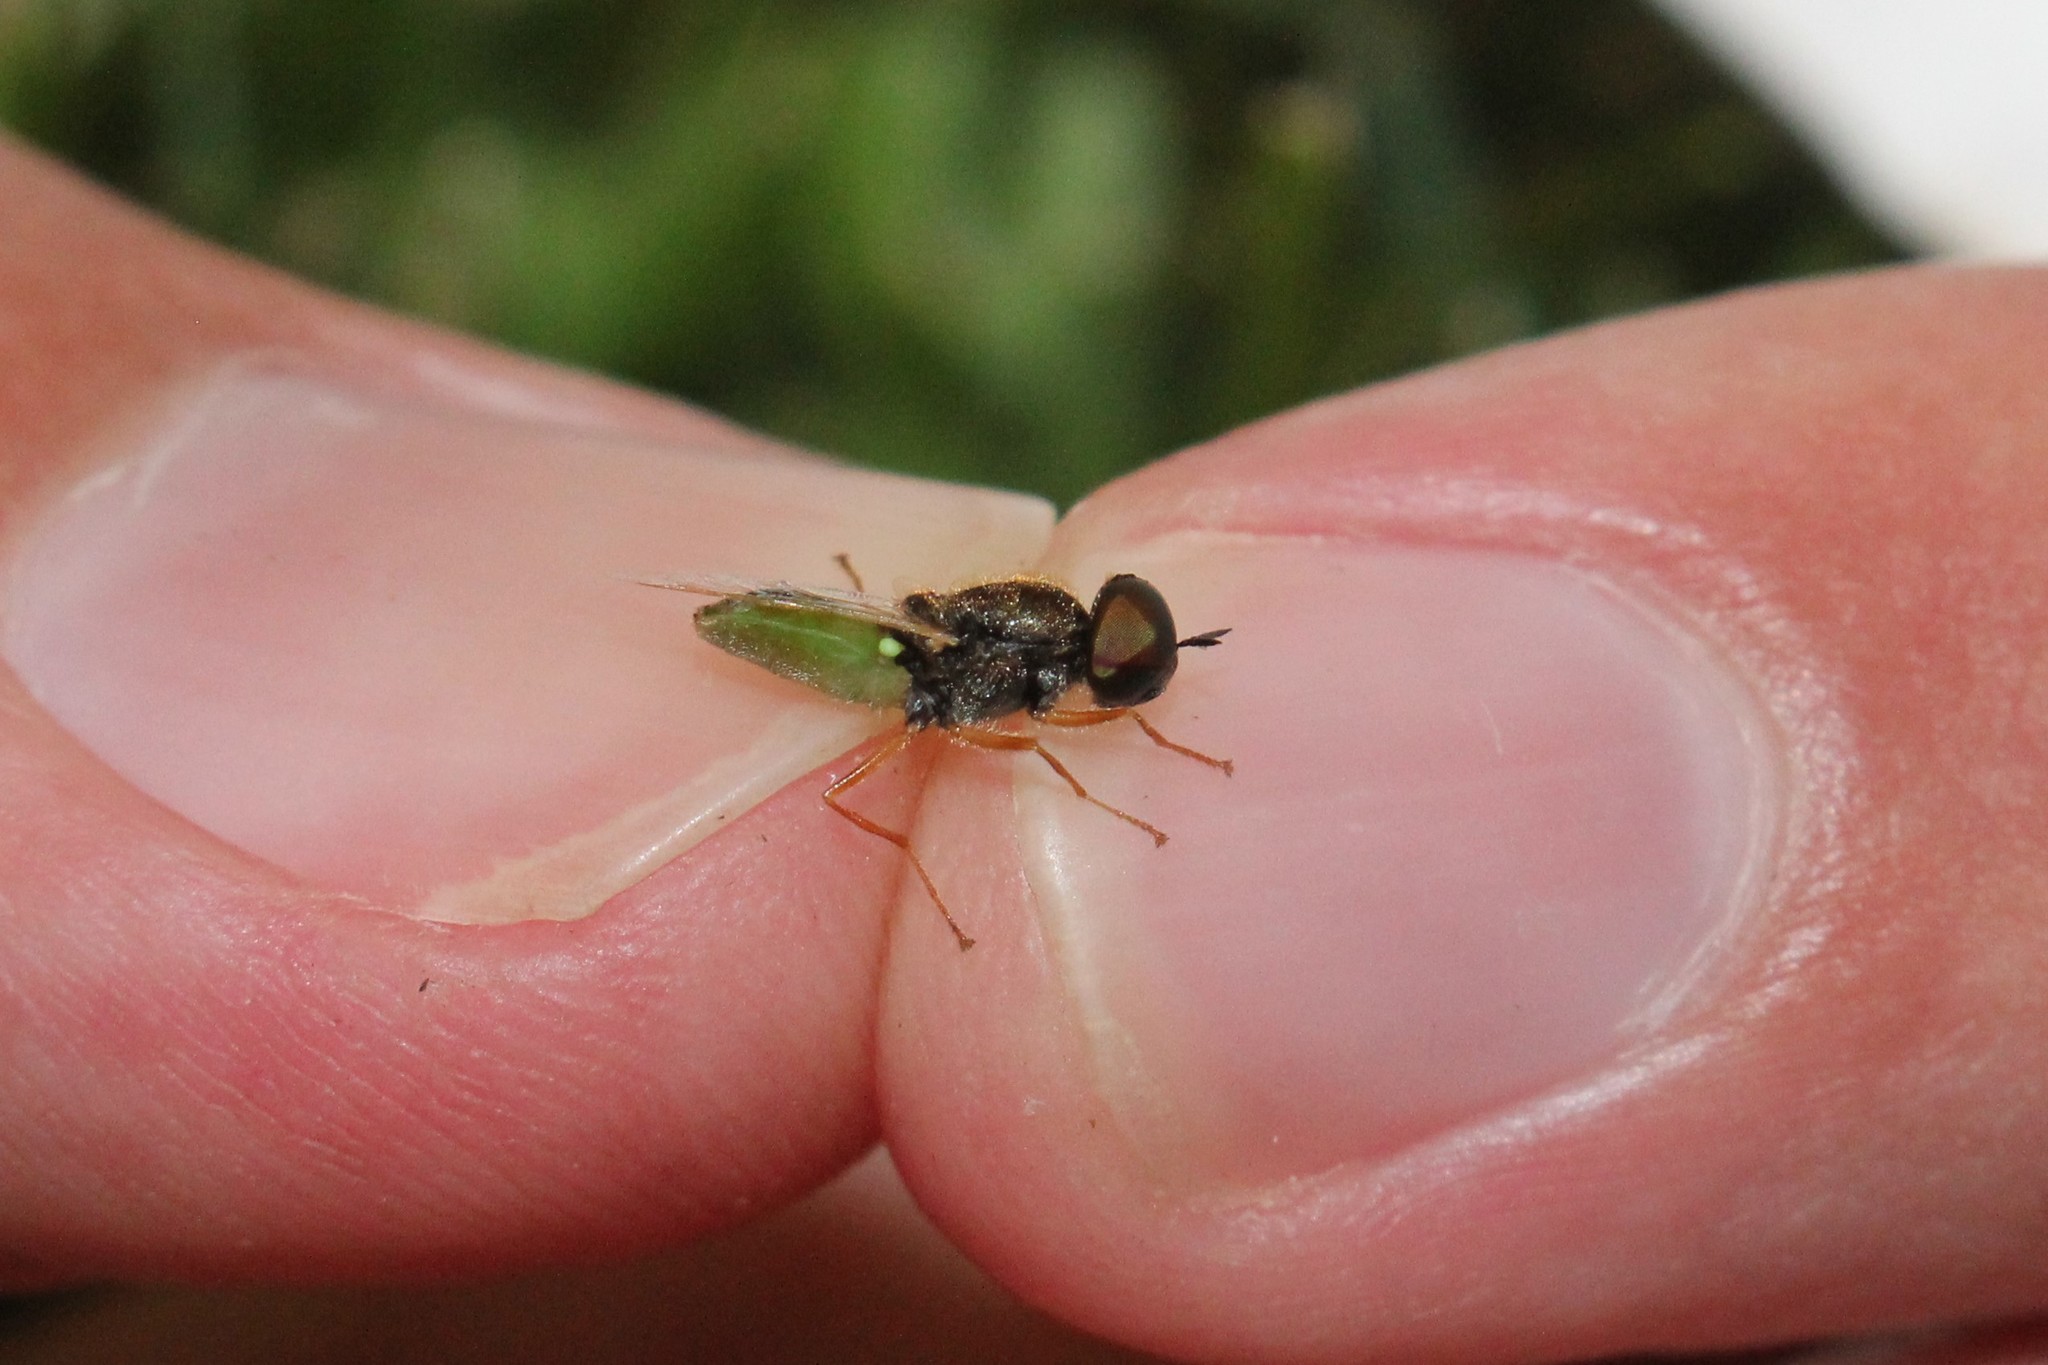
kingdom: Animalia
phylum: Arthropoda
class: Insecta
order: Diptera
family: Stratiomyidae
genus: Odontomyia
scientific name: Odontomyia virgo
